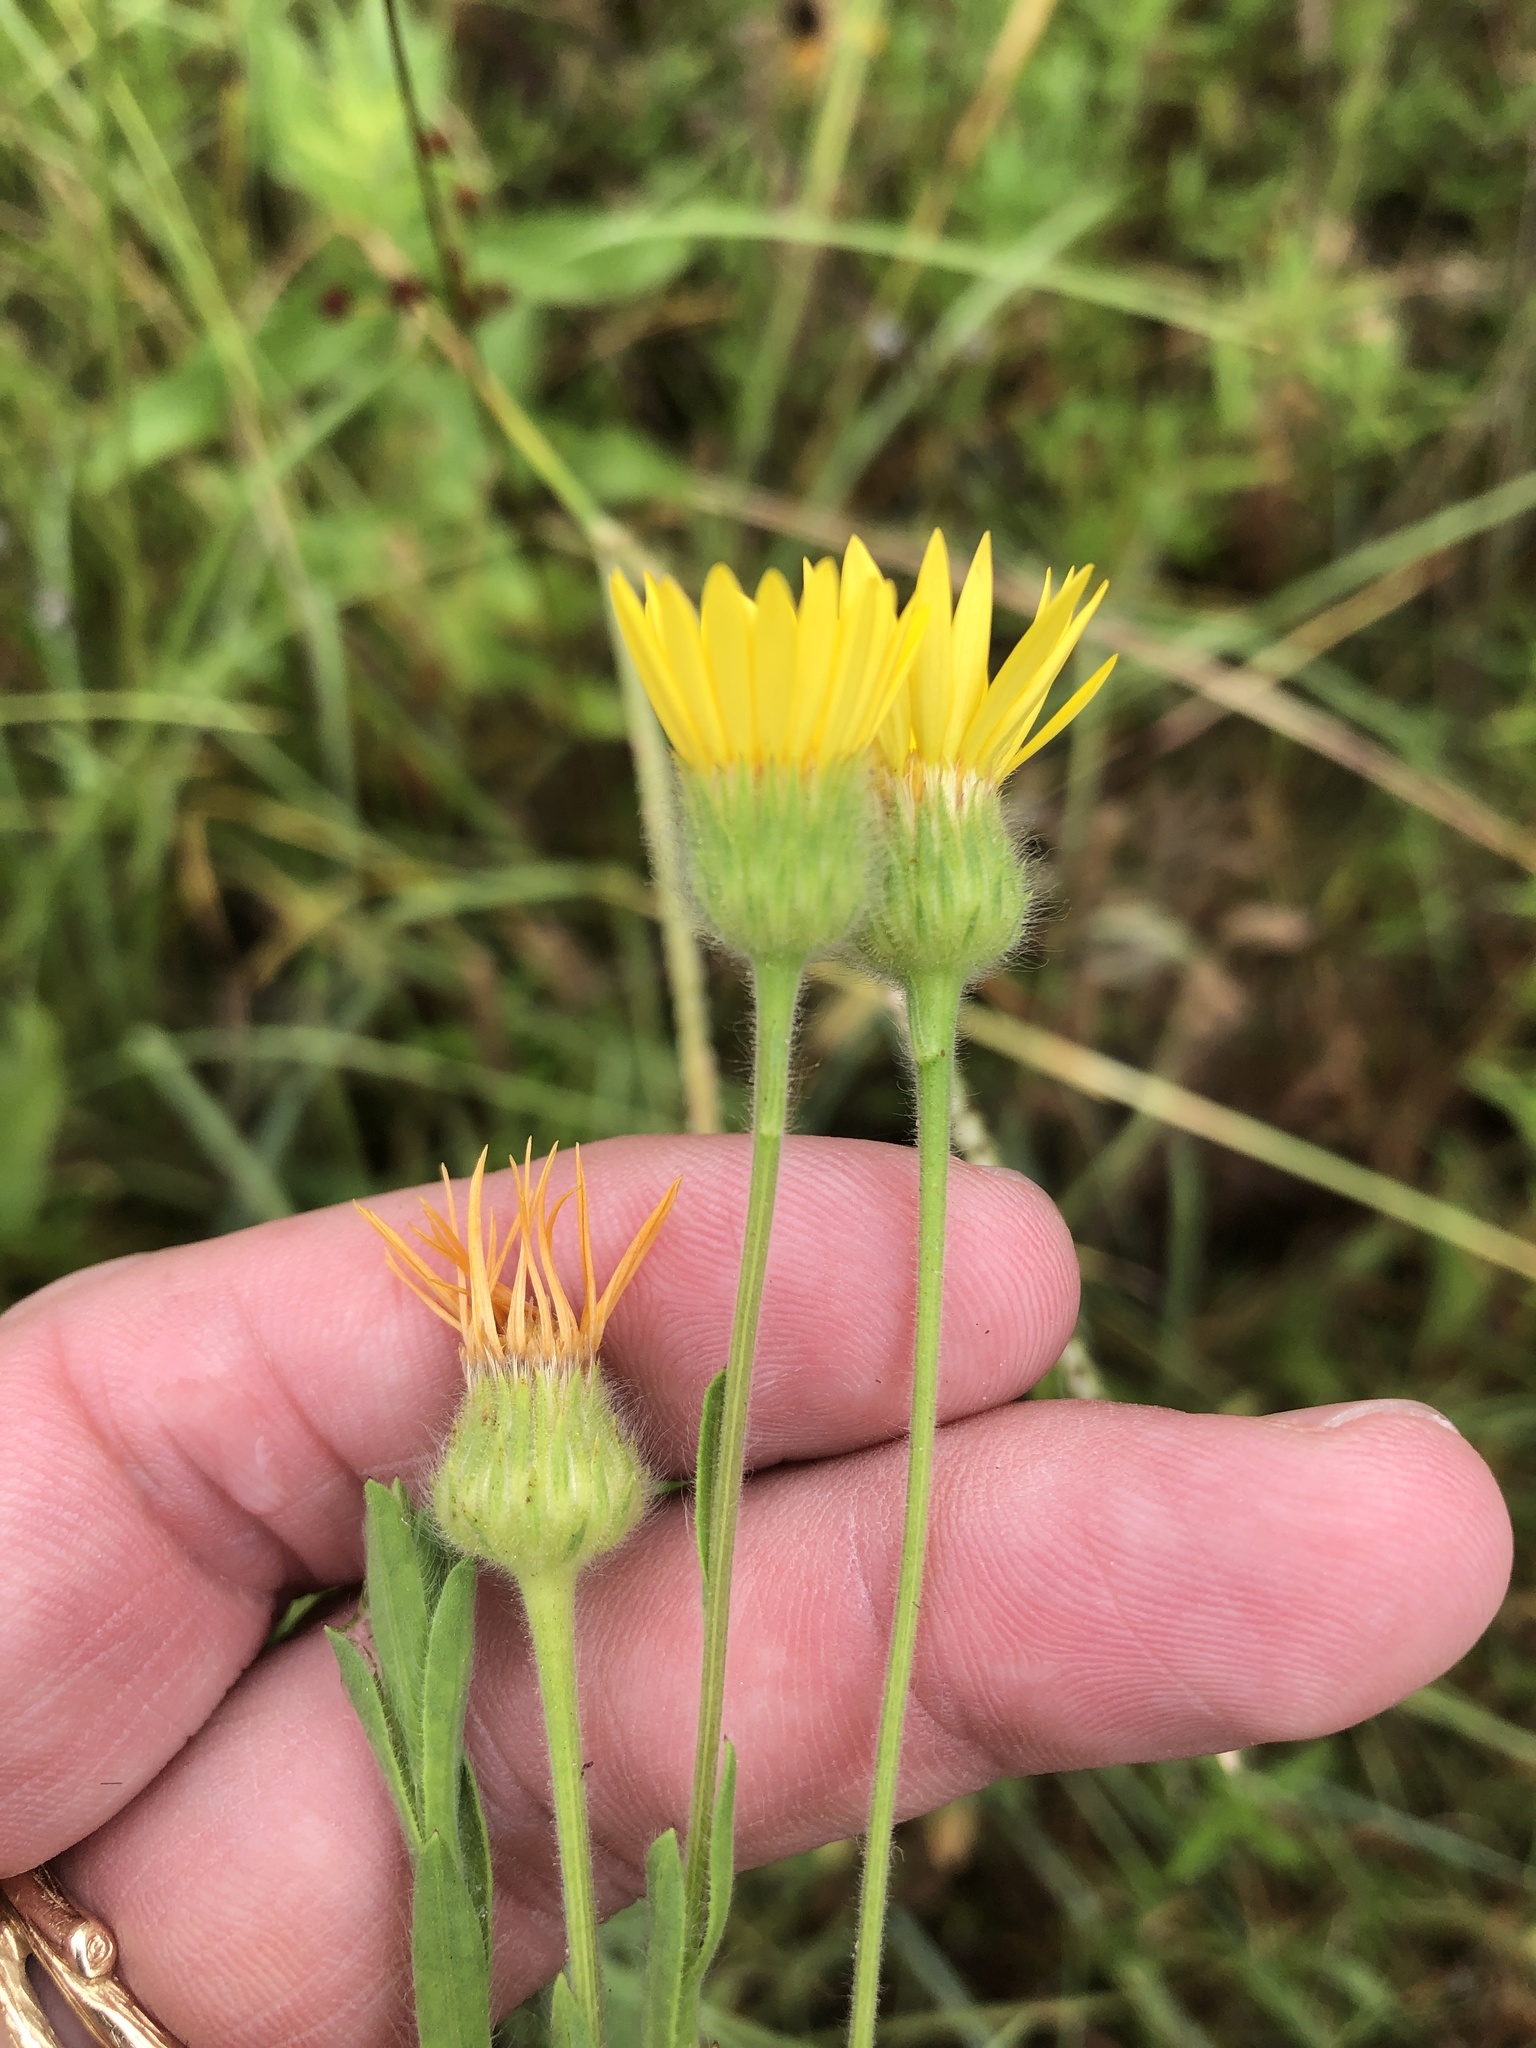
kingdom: Plantae
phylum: Tracheophyta
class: Magnoliopsida
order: Asterales
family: Asteraceae
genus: Bradburia
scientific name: Bradburia pilosa
